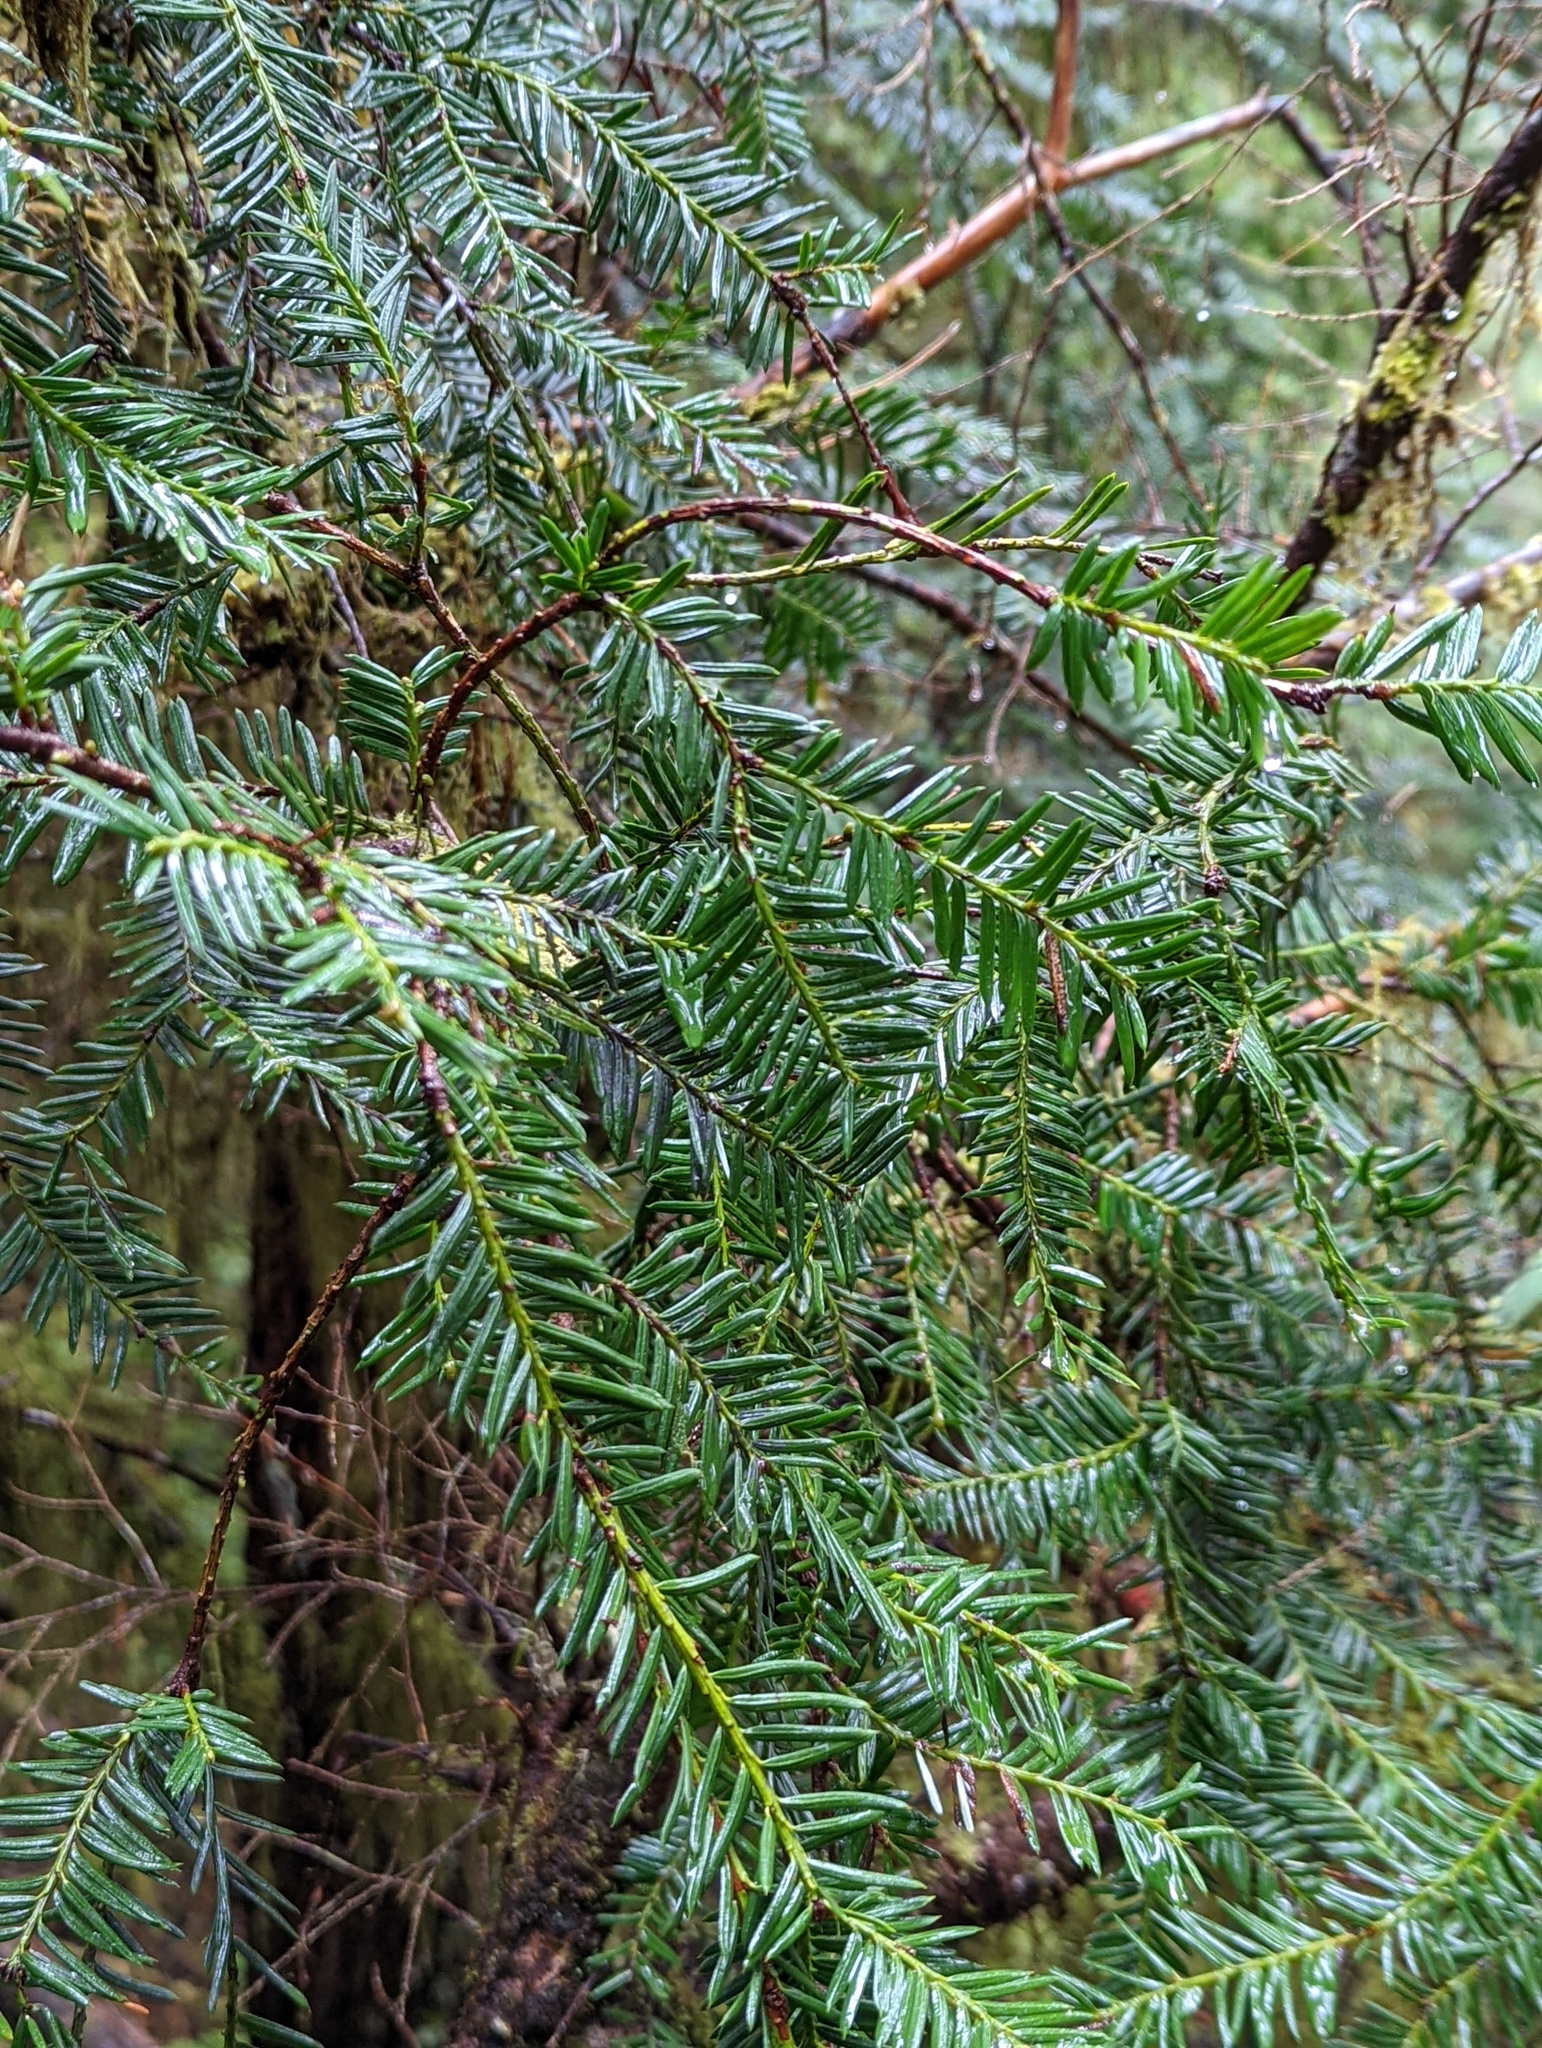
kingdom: Plantae
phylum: Tracheophyta
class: Pinopsida
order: Pinales
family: Taxaceae
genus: Taxus
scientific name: Taxus brevifolia
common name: Pacific yew
